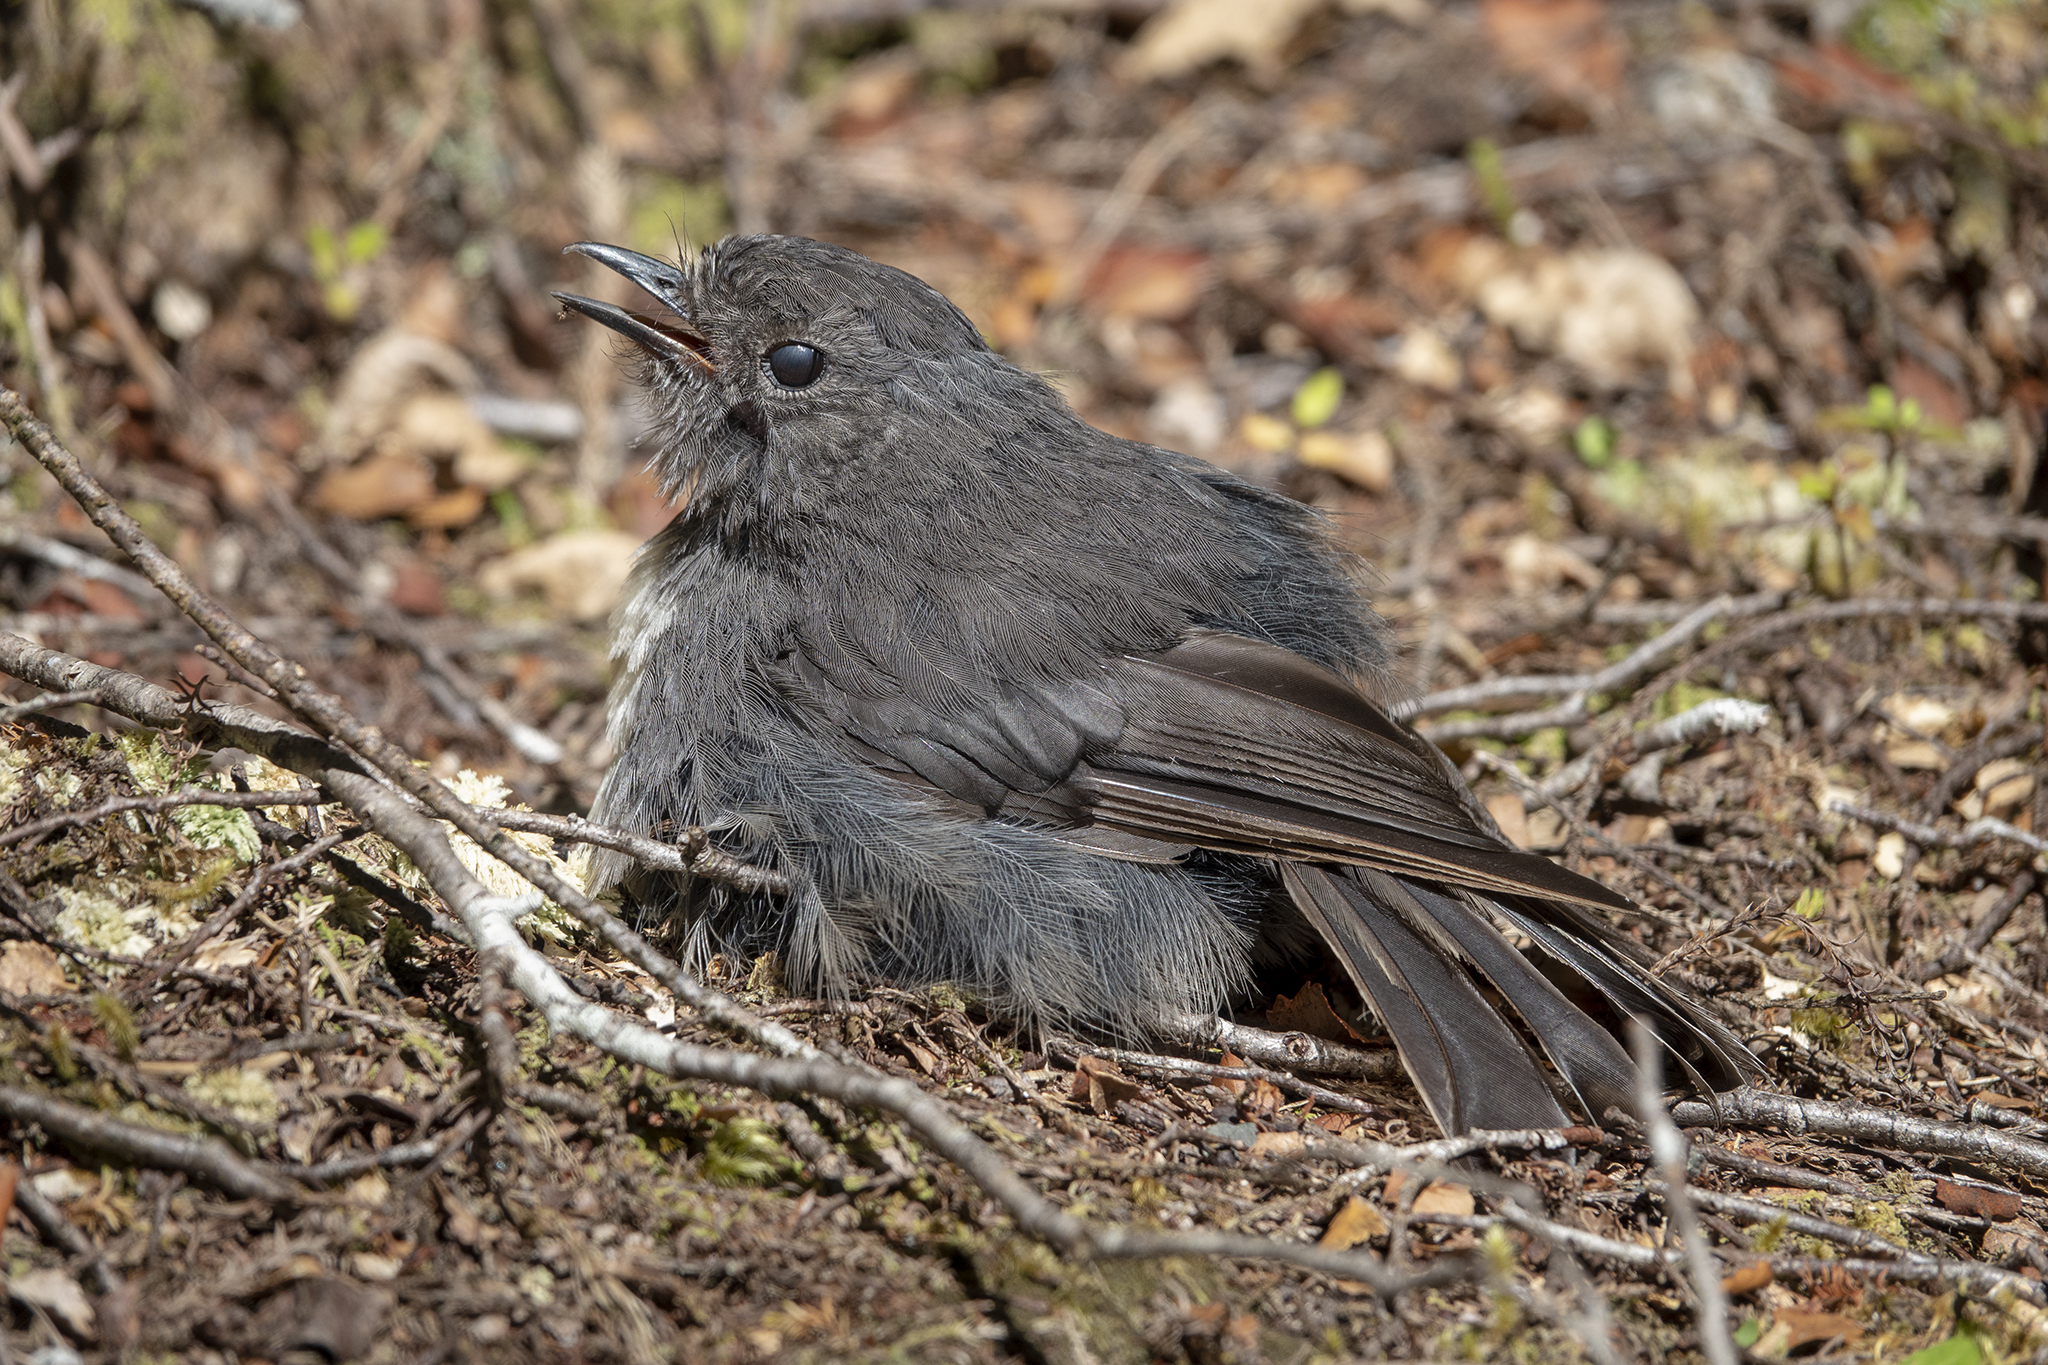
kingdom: Animalia
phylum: Chordata
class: Aves
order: Passeriformes
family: Petroicidae
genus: Petroica
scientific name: Petroica australis
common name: New zealand robin
